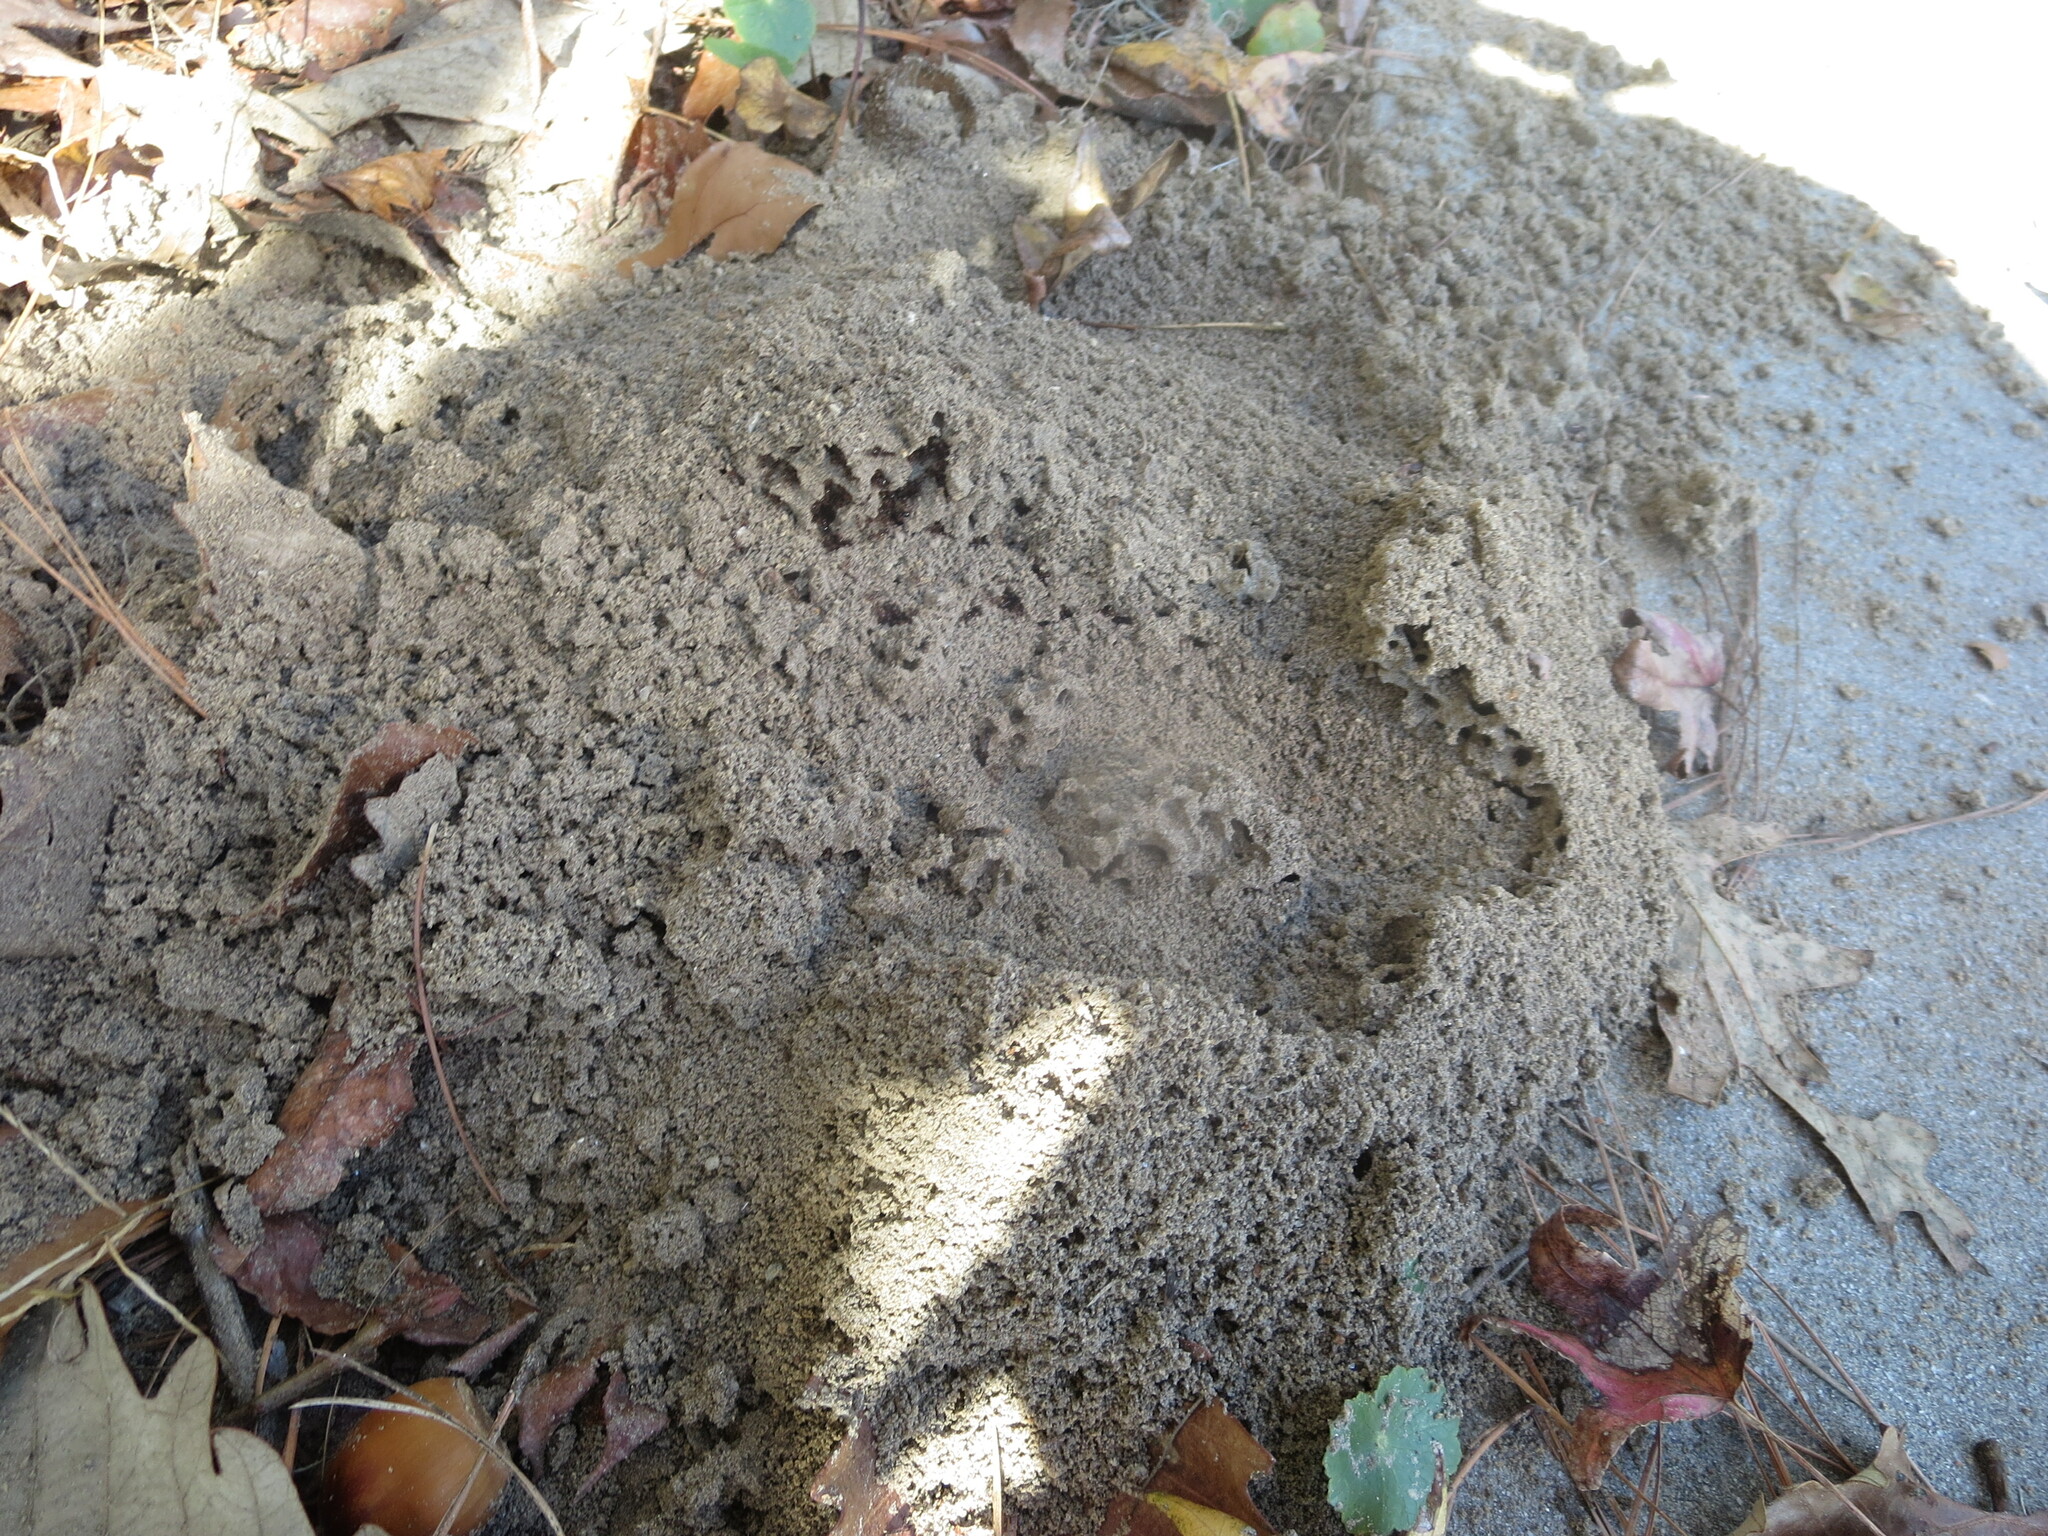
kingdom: Animalia
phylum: Arthropoda
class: Insecta
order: Hymenoptera
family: Formicidae
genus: Solenopsis
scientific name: Solenopsis invicta
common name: Red imported fire ant
